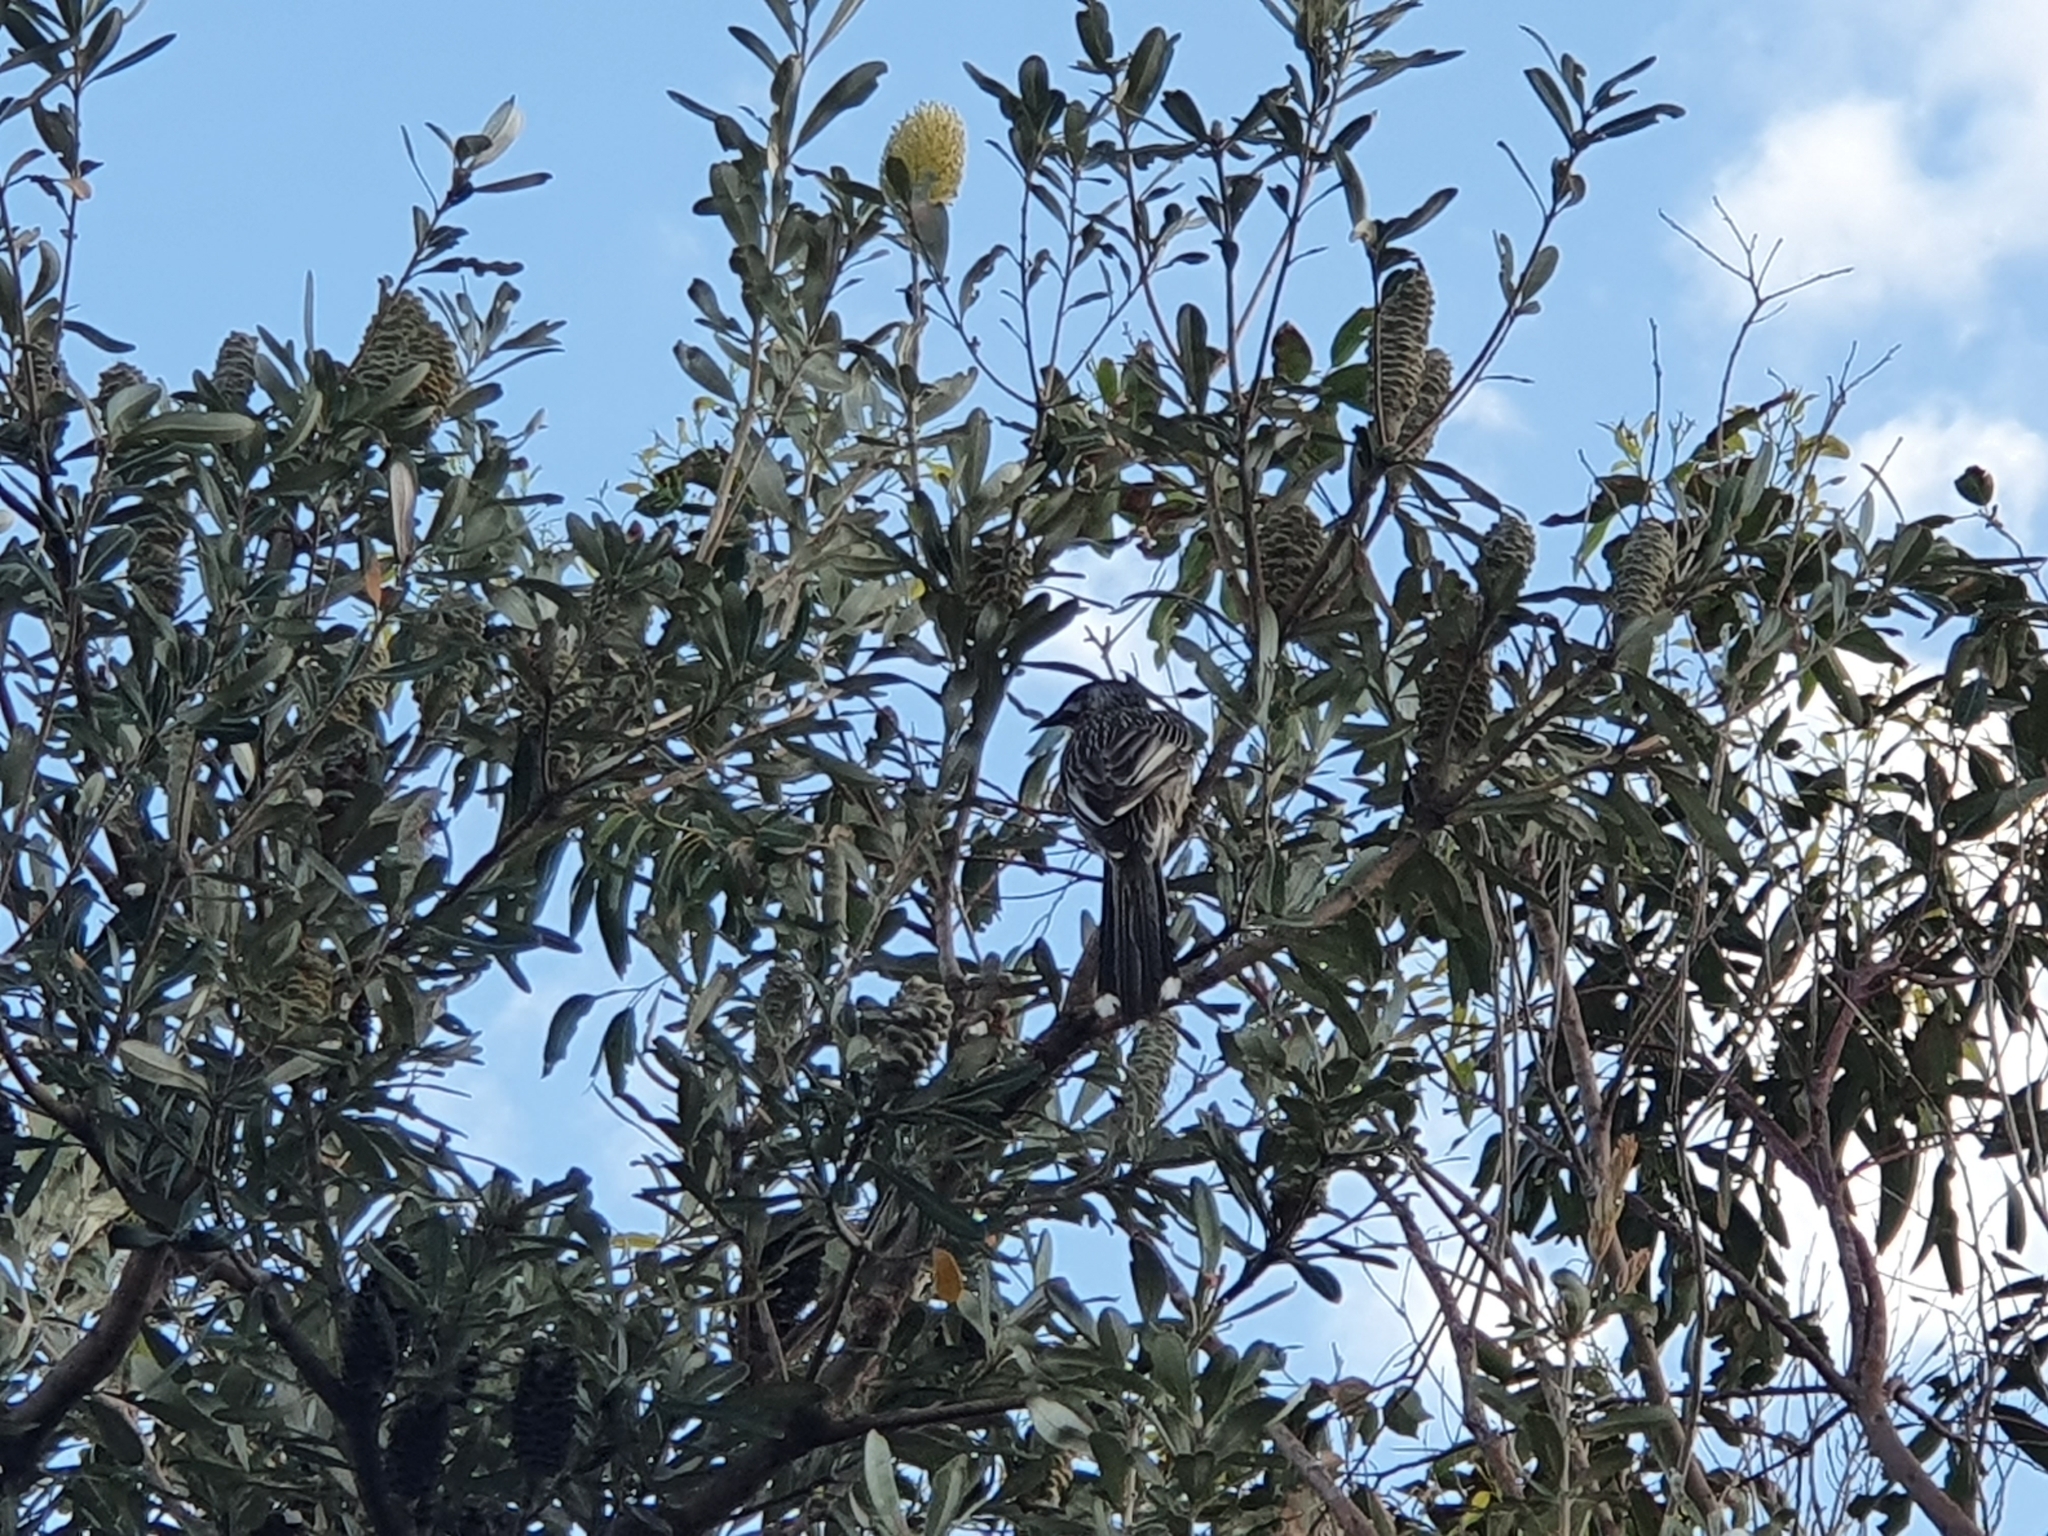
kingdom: Animalia
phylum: Chordata
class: Aves
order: Passeriformes
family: Meliphagidae
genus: Anthochaera
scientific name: Anthochaera carunculata
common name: Red wattlebird
